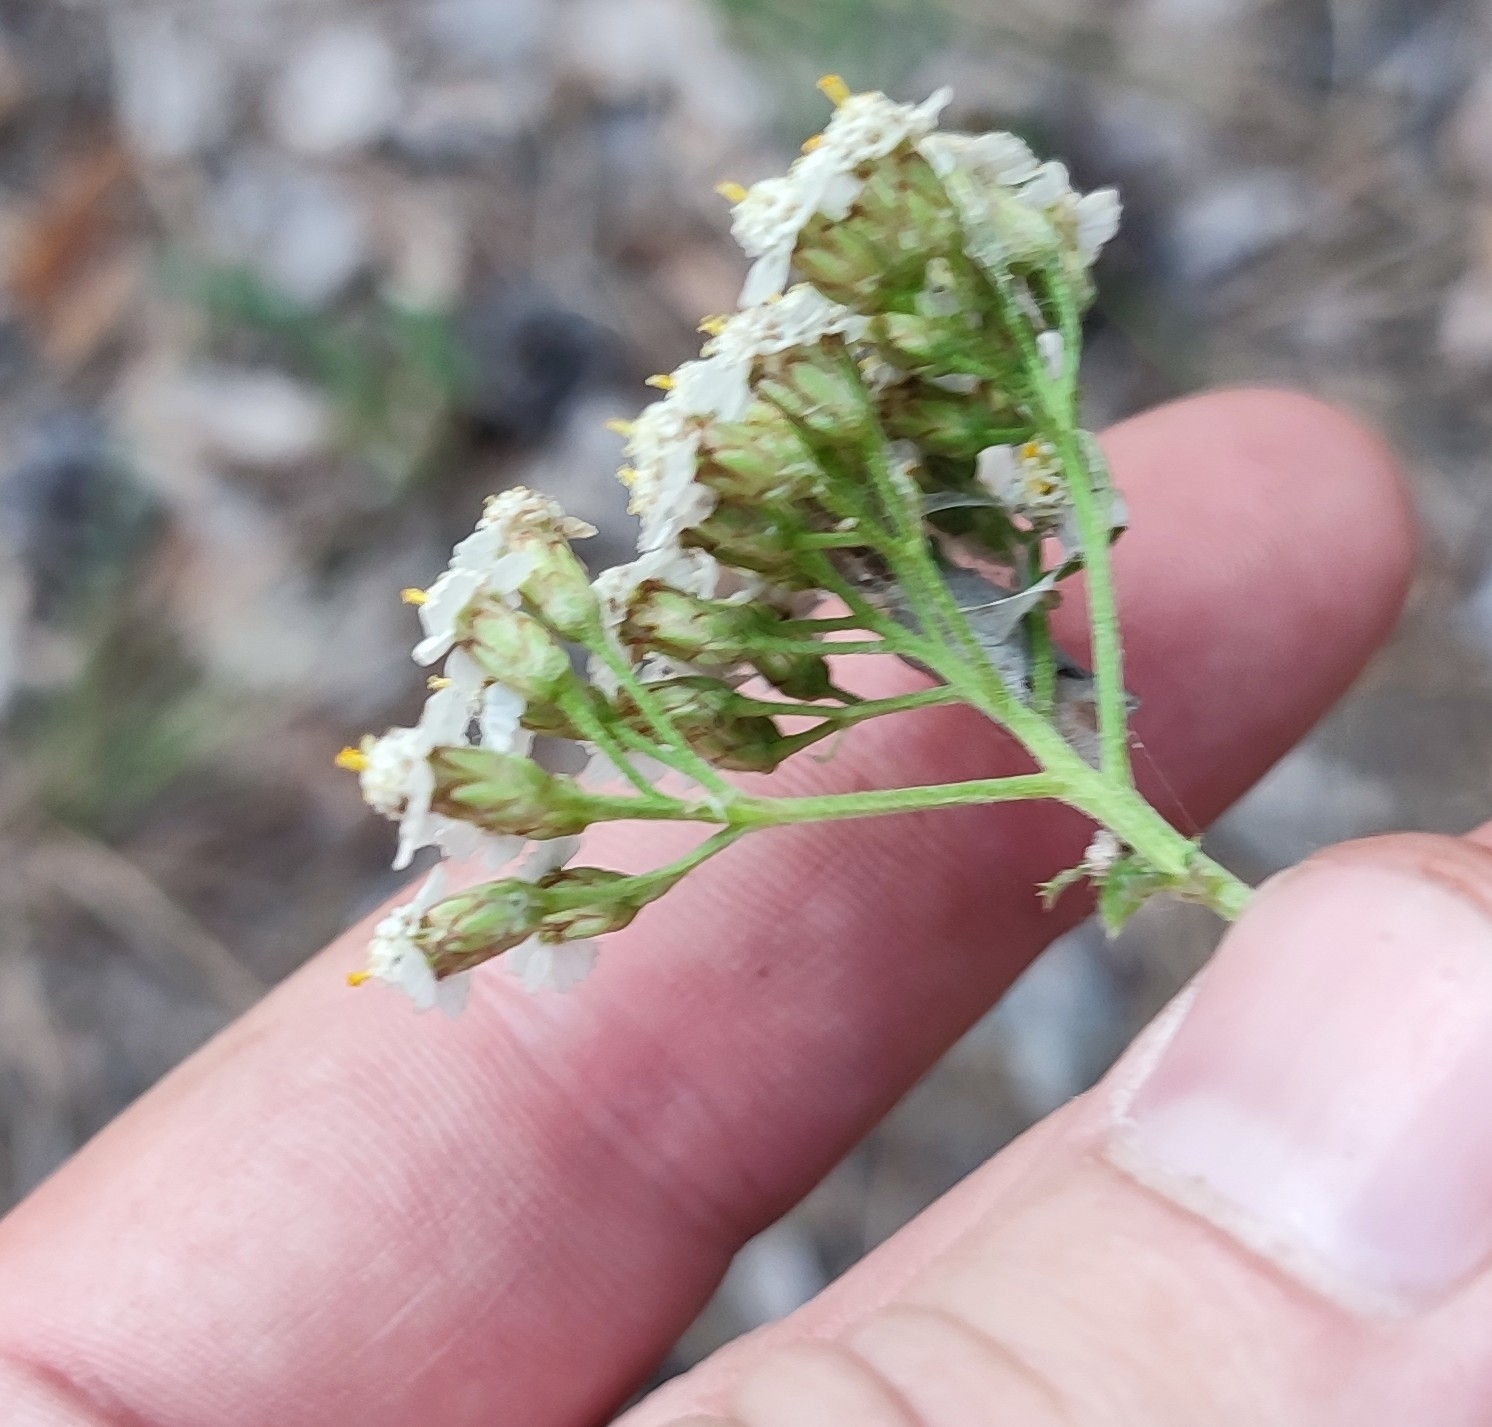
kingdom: Plantae
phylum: Tracheophyta
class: Magnoliopsida
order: Asterales
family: Asteraceae
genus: Achillea
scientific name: Achillea millefolium
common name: Yarrow
